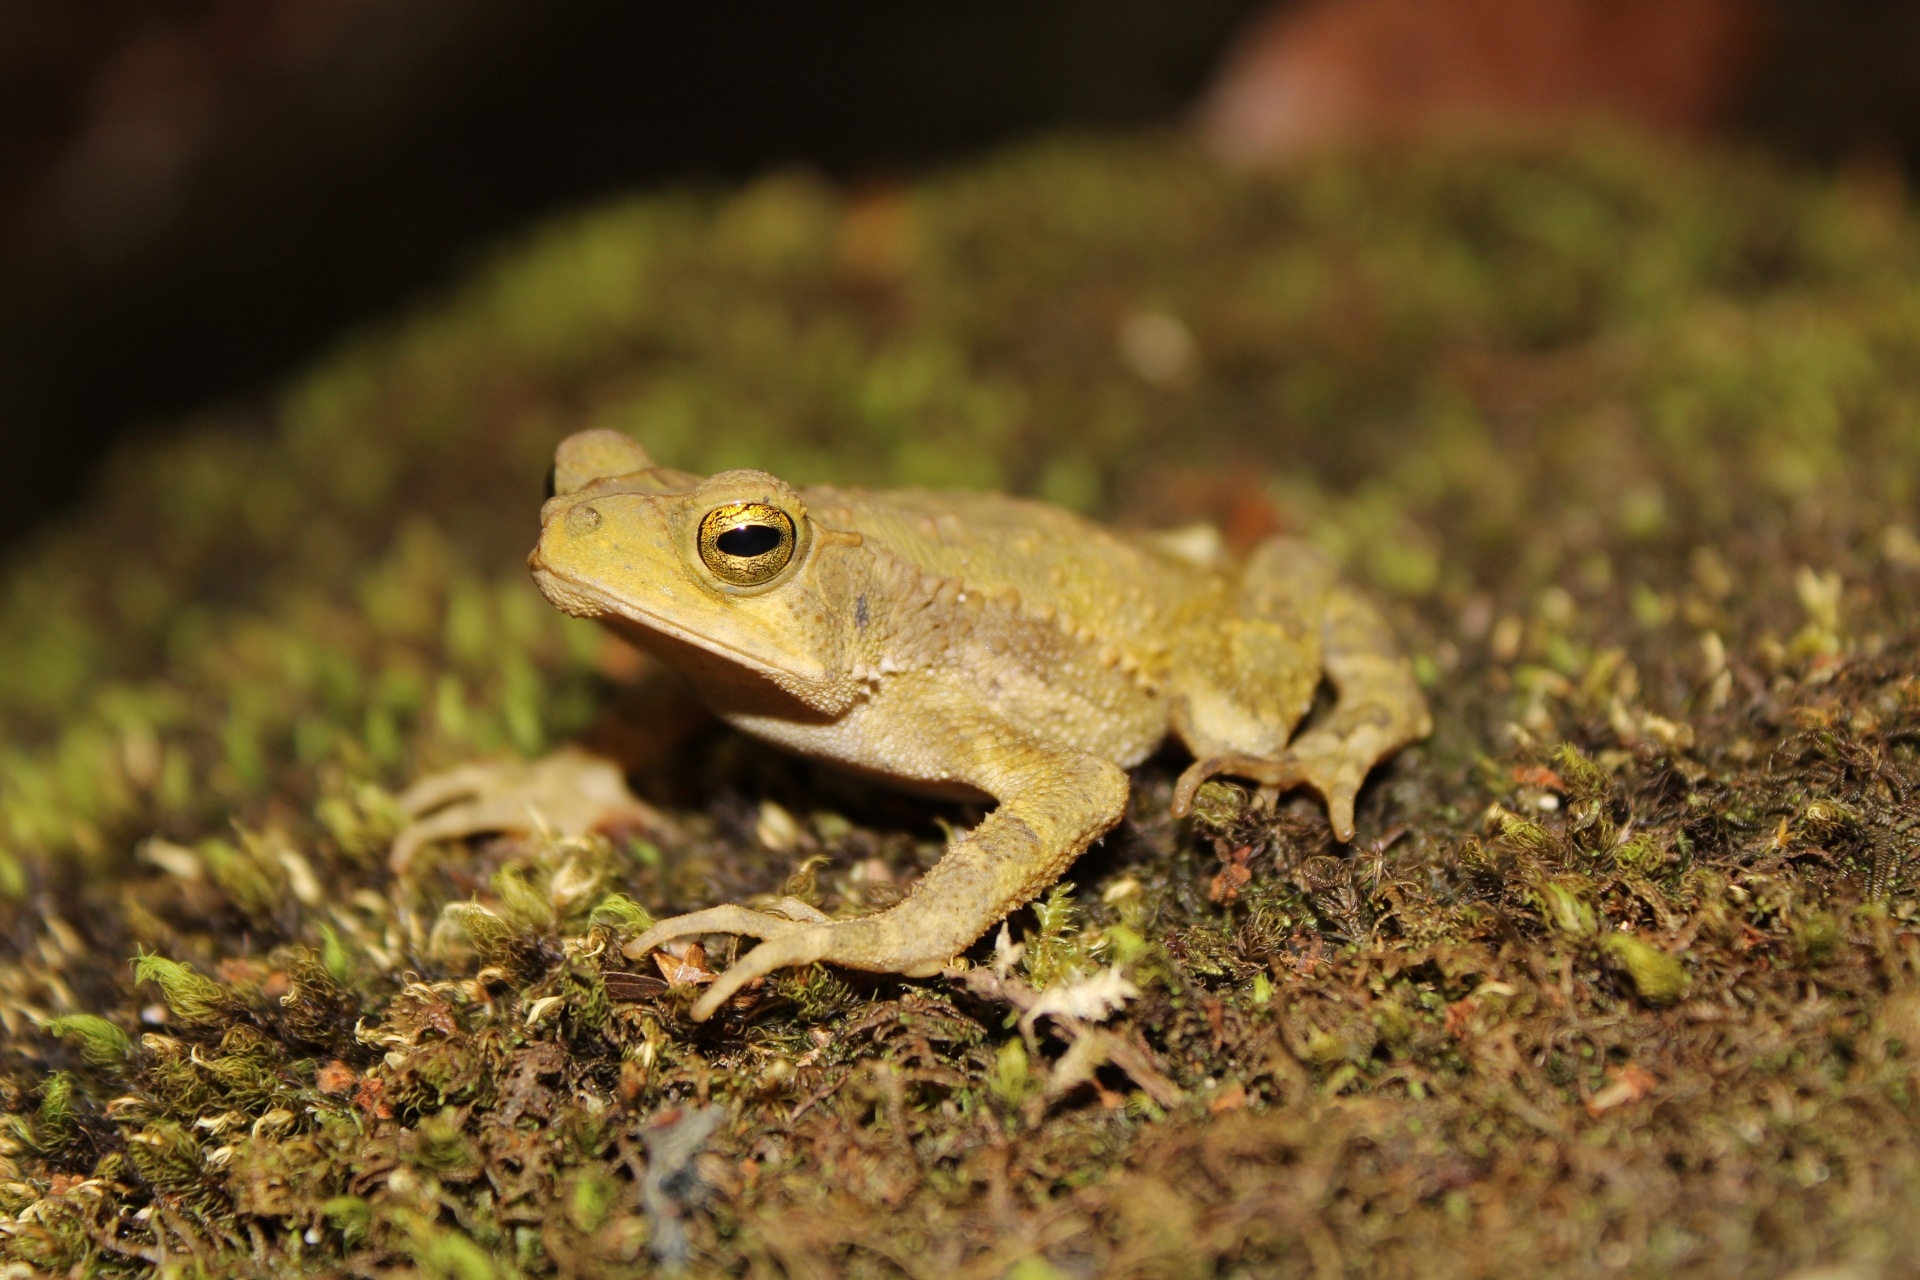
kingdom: Animalia
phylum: Chordata
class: Amphibia
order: Anura
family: Bufonidae
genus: Incilius
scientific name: Incilius coniferus
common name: Evergreen toad
